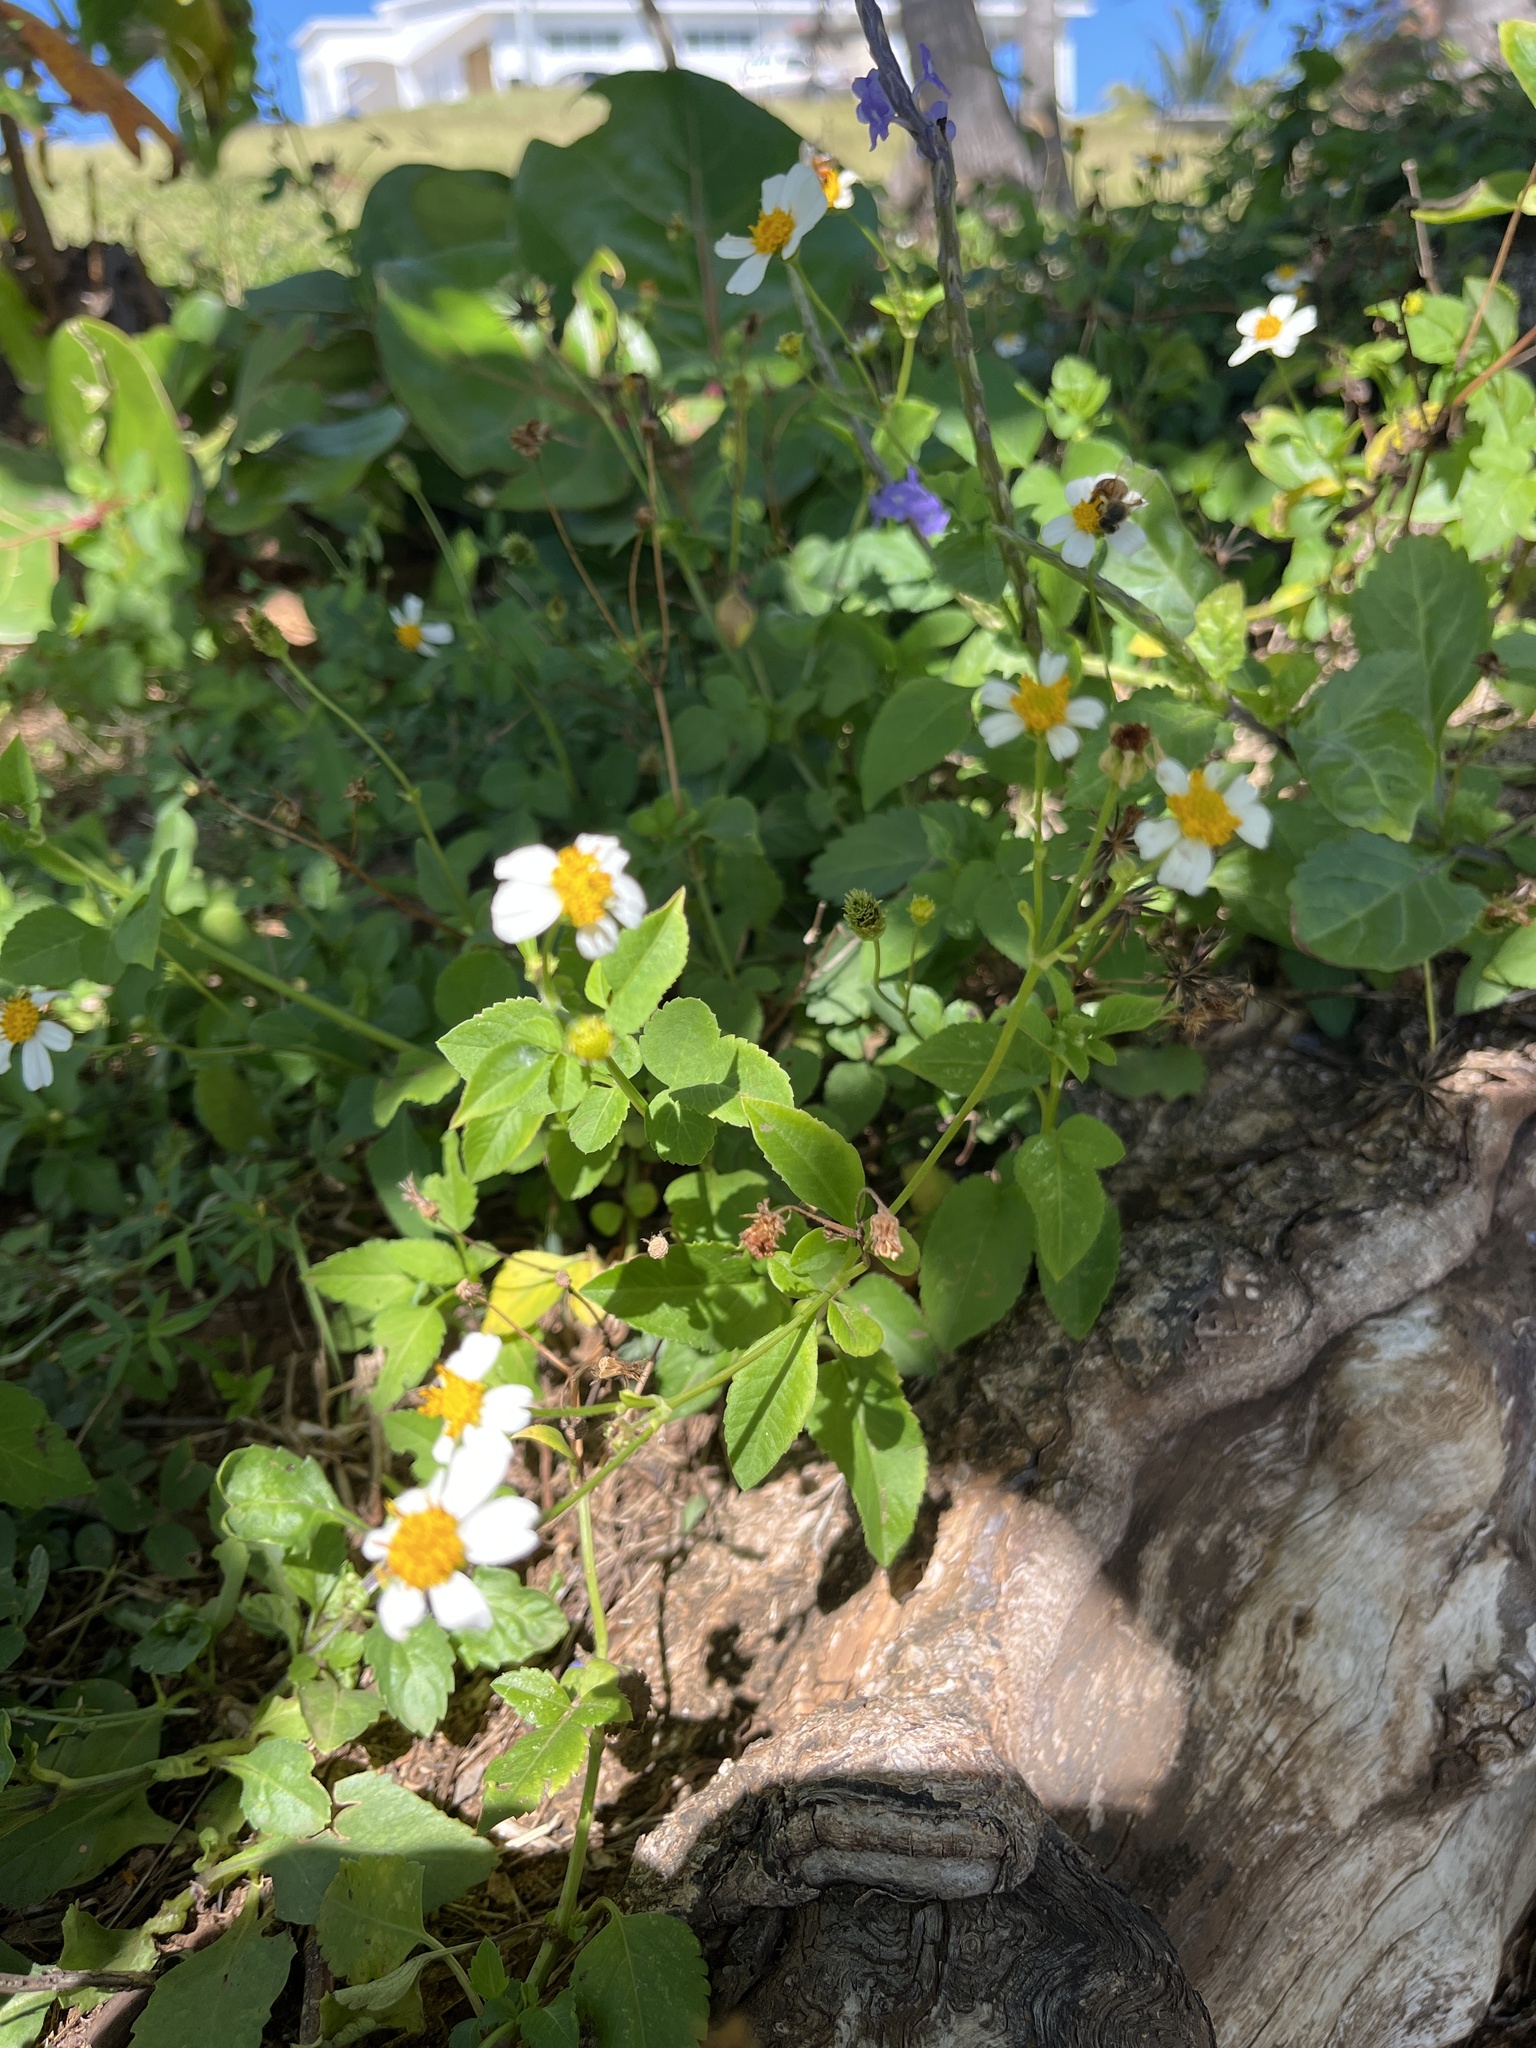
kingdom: Plantae
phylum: Tracheophyta
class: Magnoliopsida
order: Asterales
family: Asteraceae
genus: Bidens
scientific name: Bidens alba
